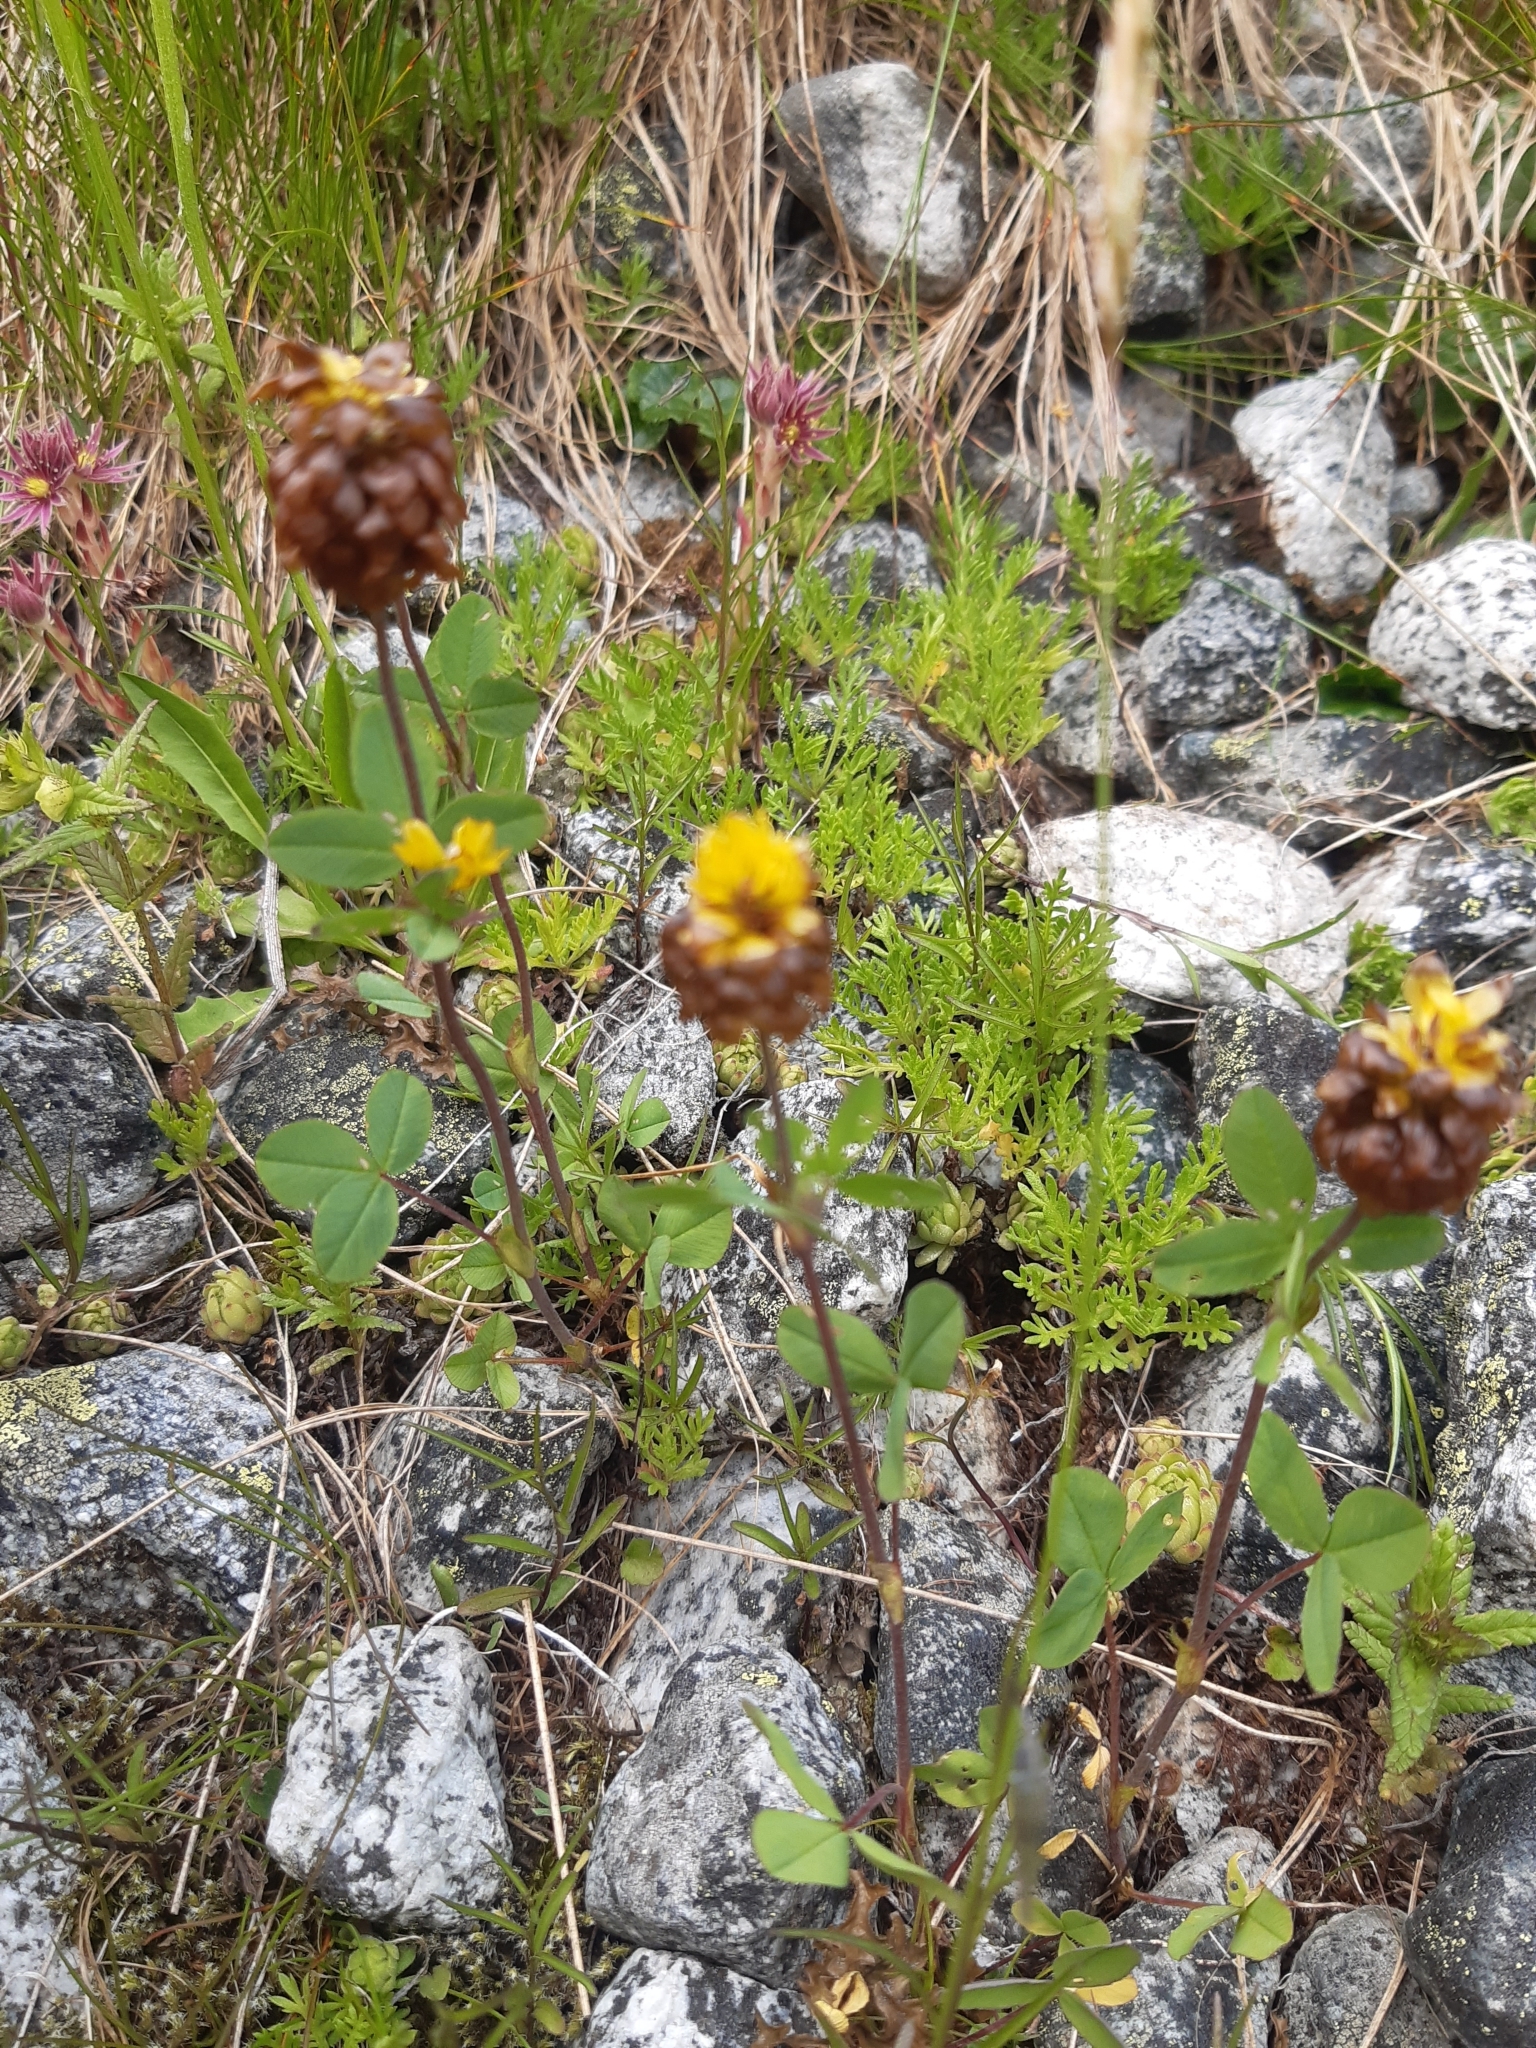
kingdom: Plantae
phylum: Tracheophyta
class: Magnoliopsida
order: Fabales
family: Fabaceae
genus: Trifolium
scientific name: Trifolium badium
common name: Brown clover
